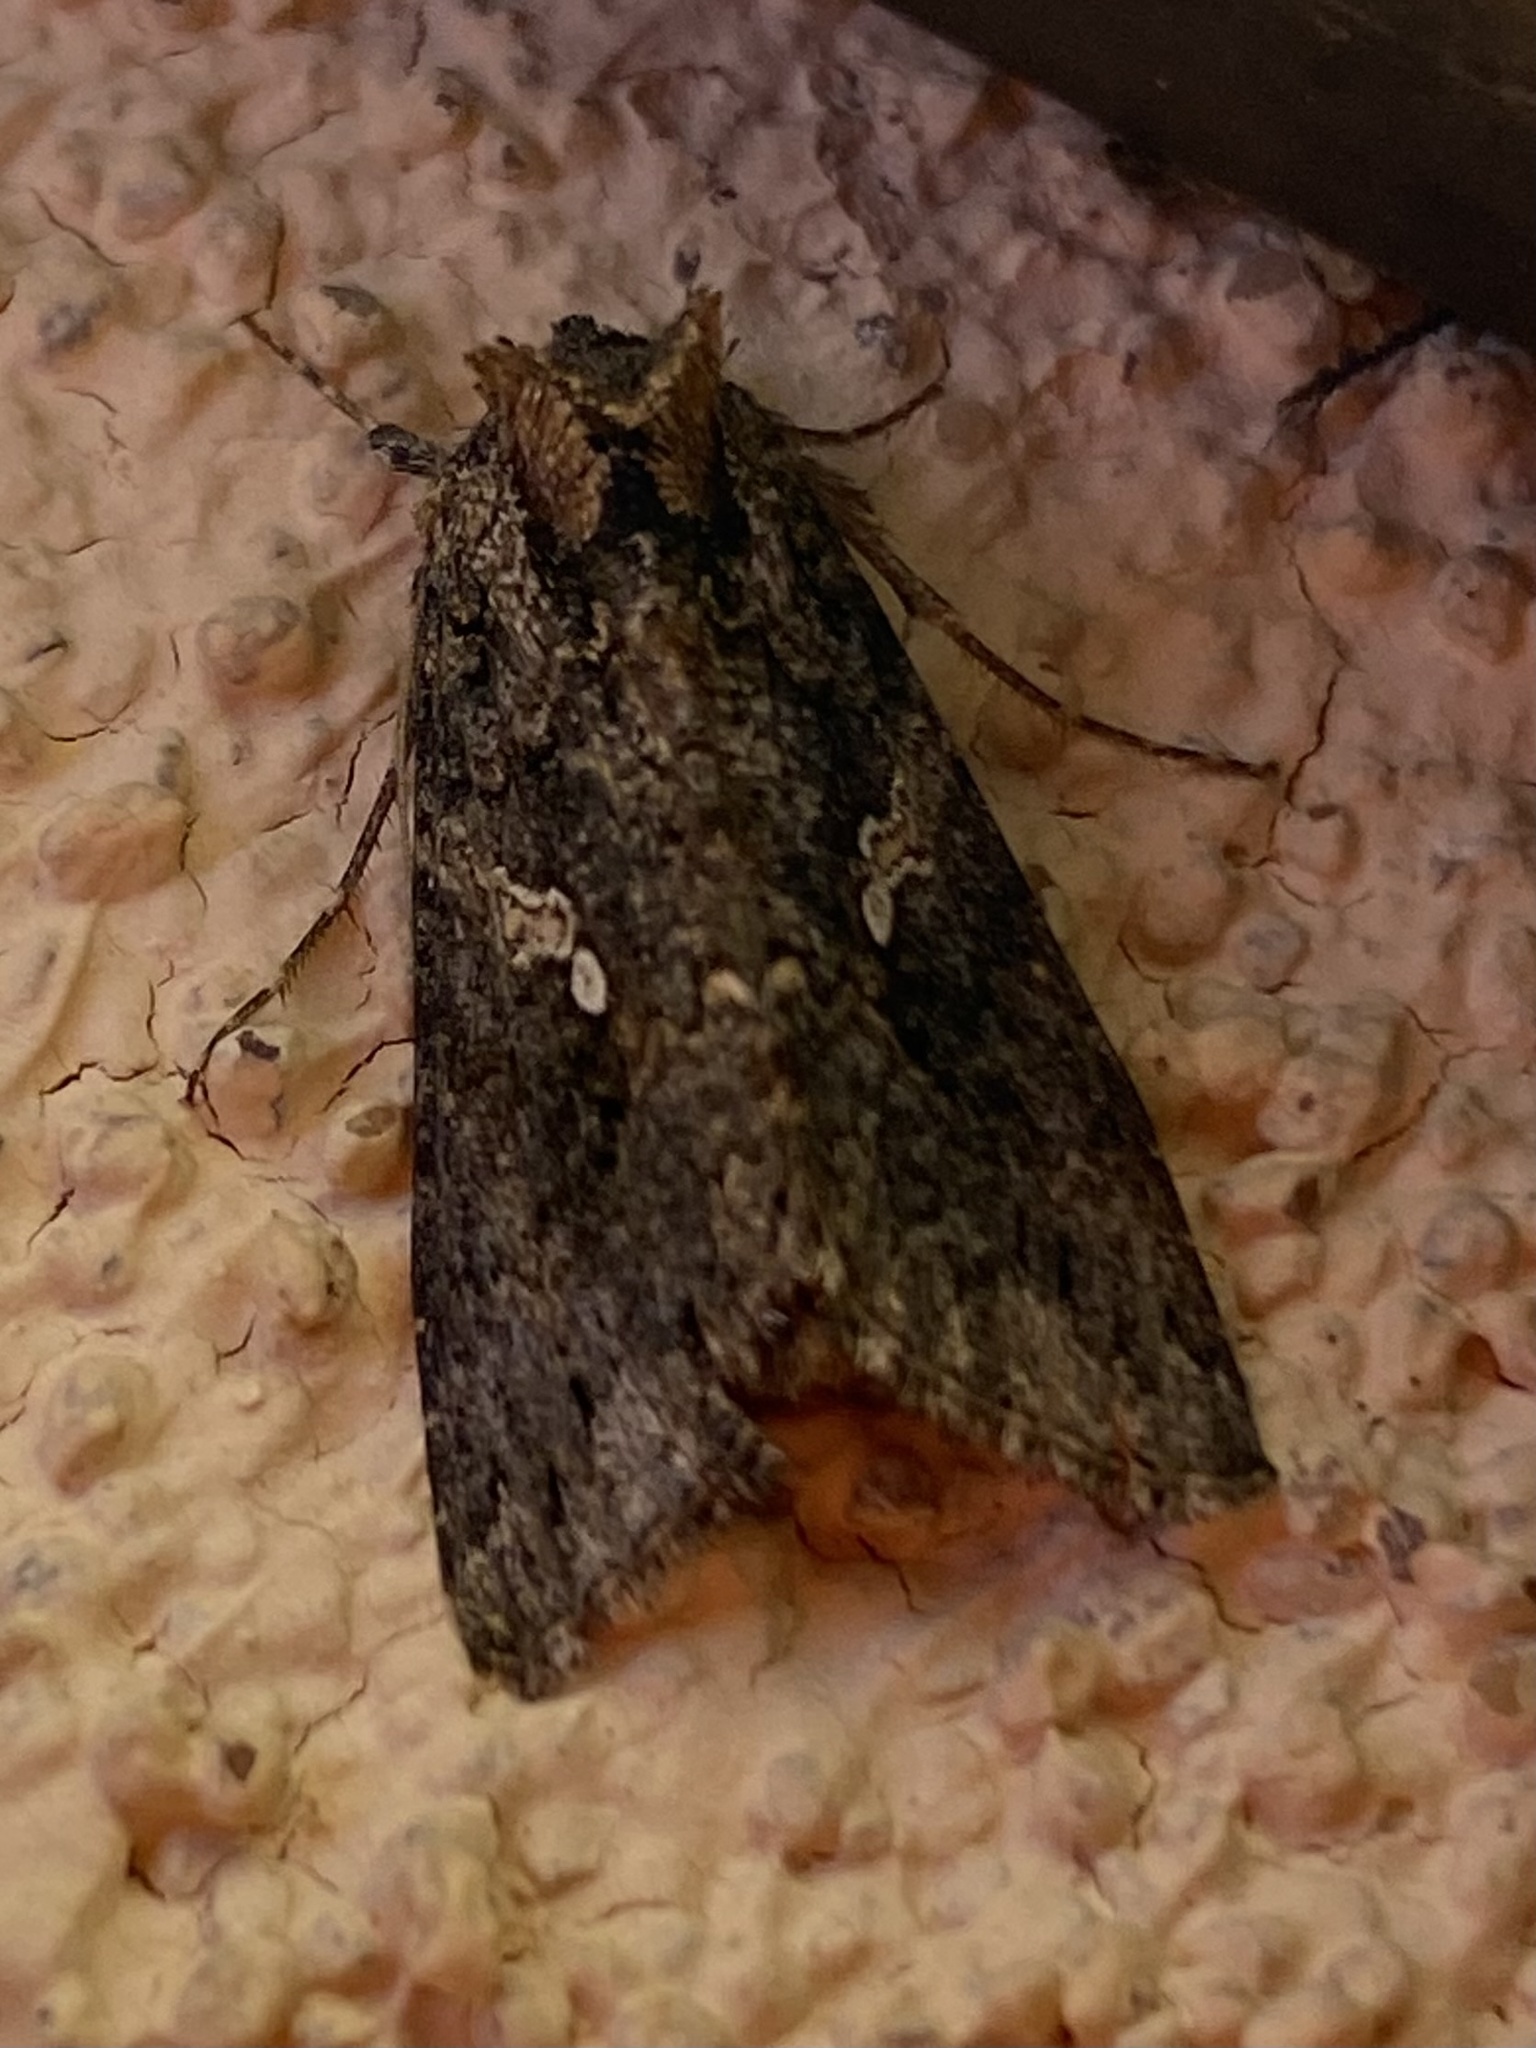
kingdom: Animalia
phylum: Arthropoda
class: Insecta
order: Lepidoptera
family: Noctuidae
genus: Trichoplusia
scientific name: Trichoplusia ni
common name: Ni moth
